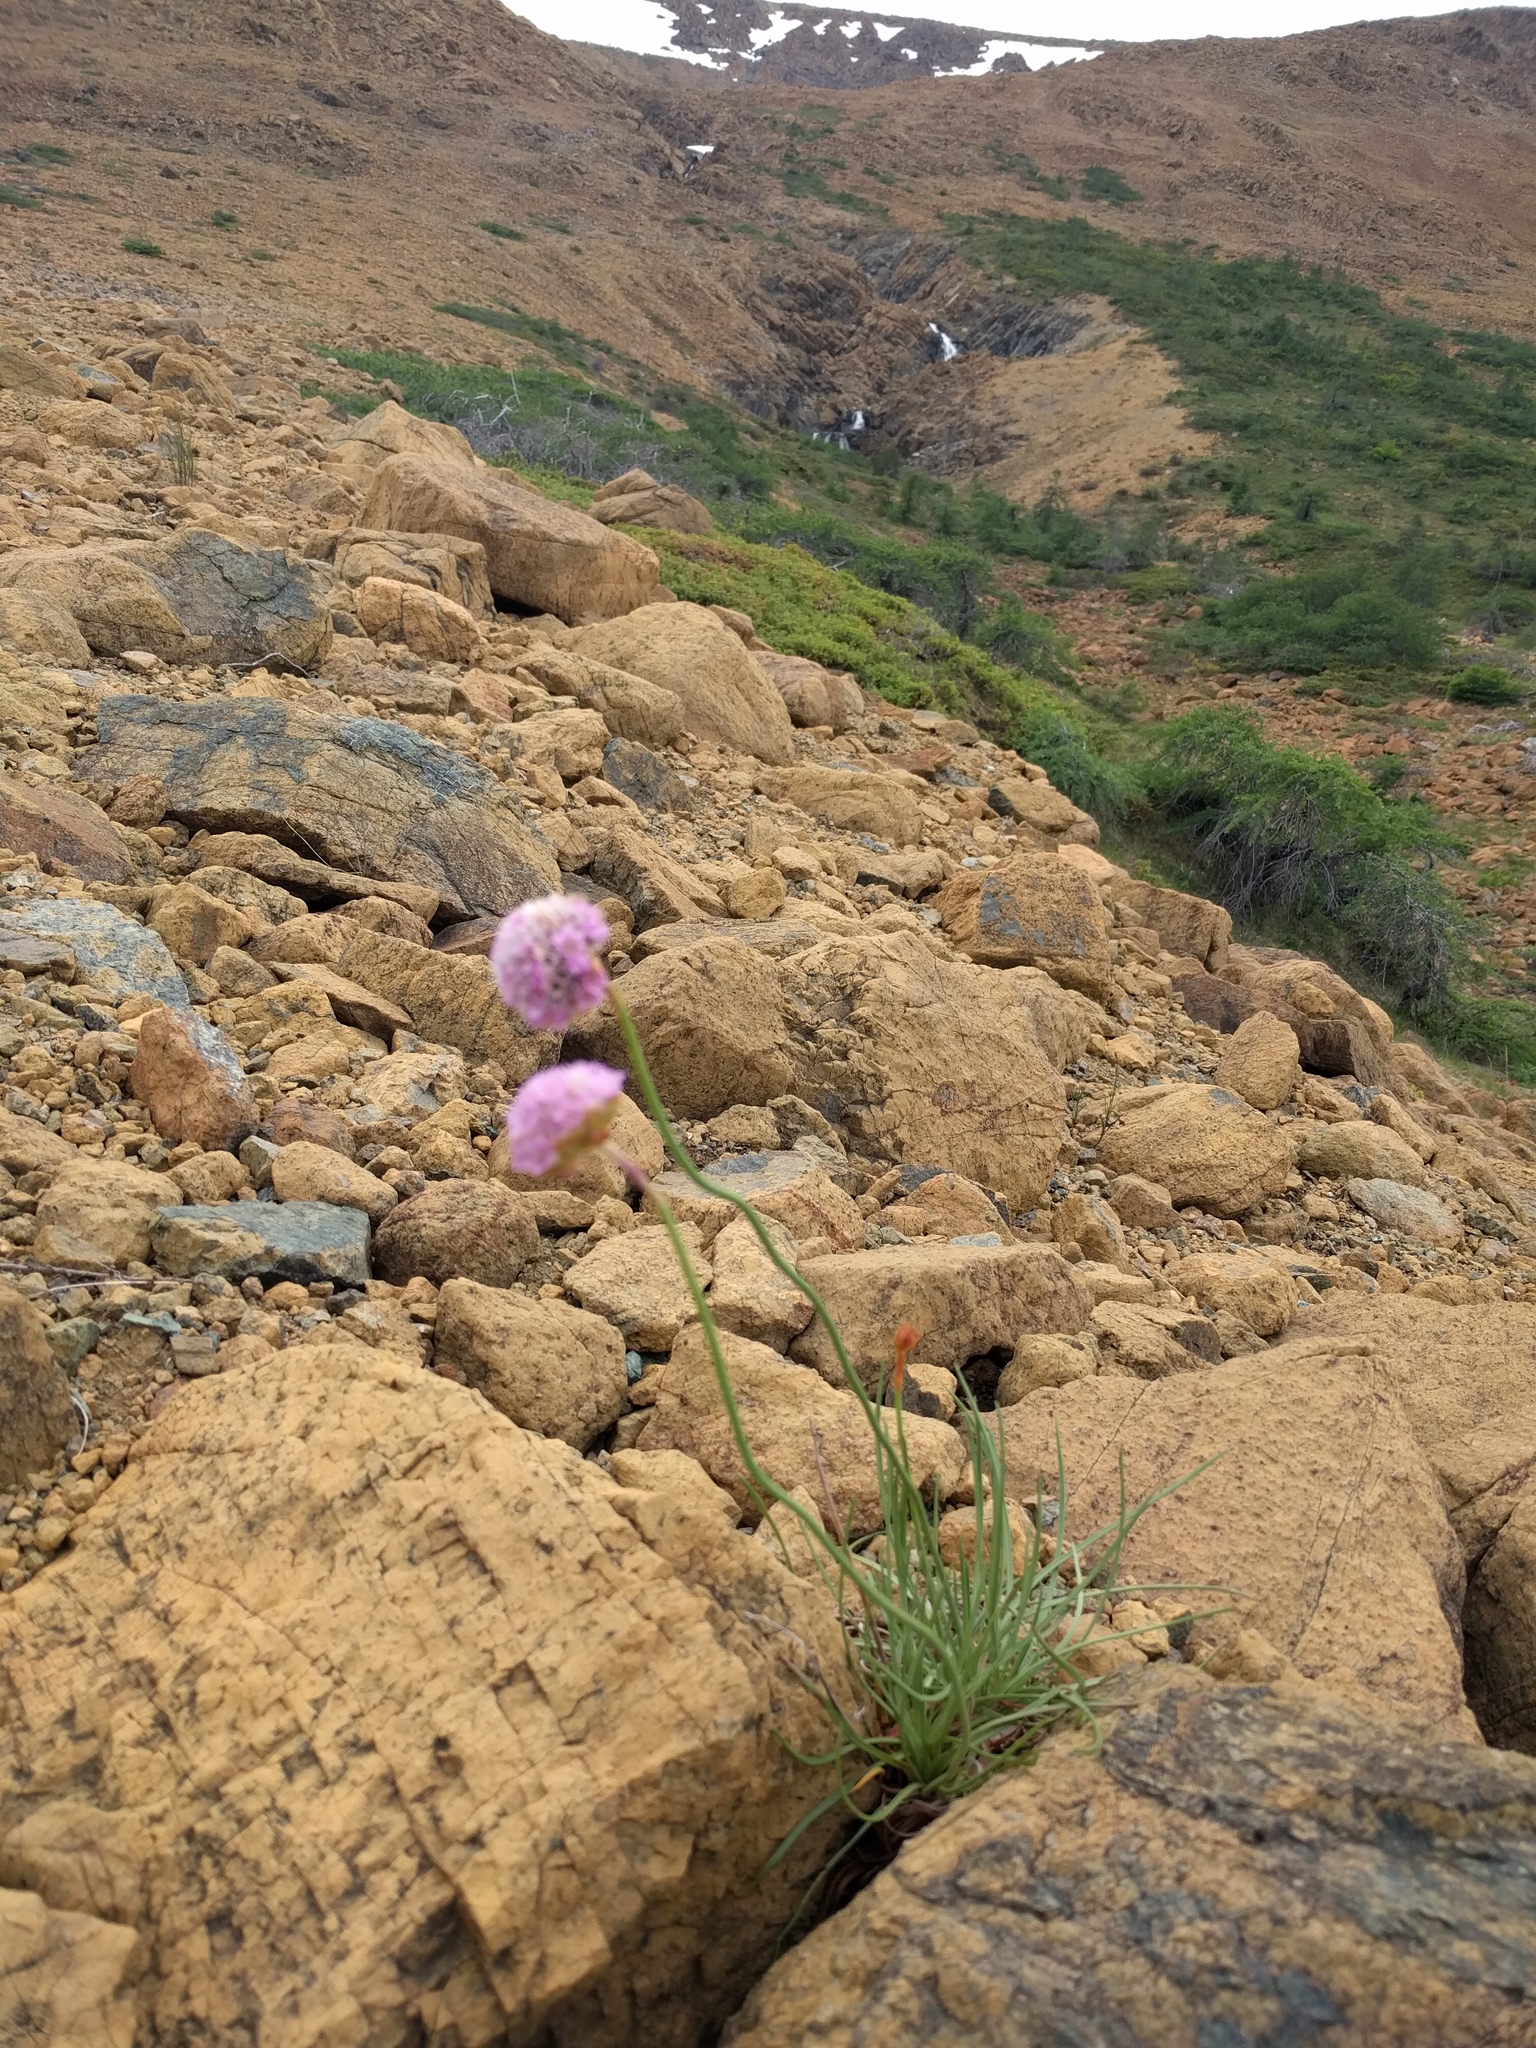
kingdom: Plantae
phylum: Tracheophyta
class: Magnoliopsida
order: Caryophyllales
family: Plumbaginaceae
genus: Armeria
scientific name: Armeria maritima
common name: Thrift
